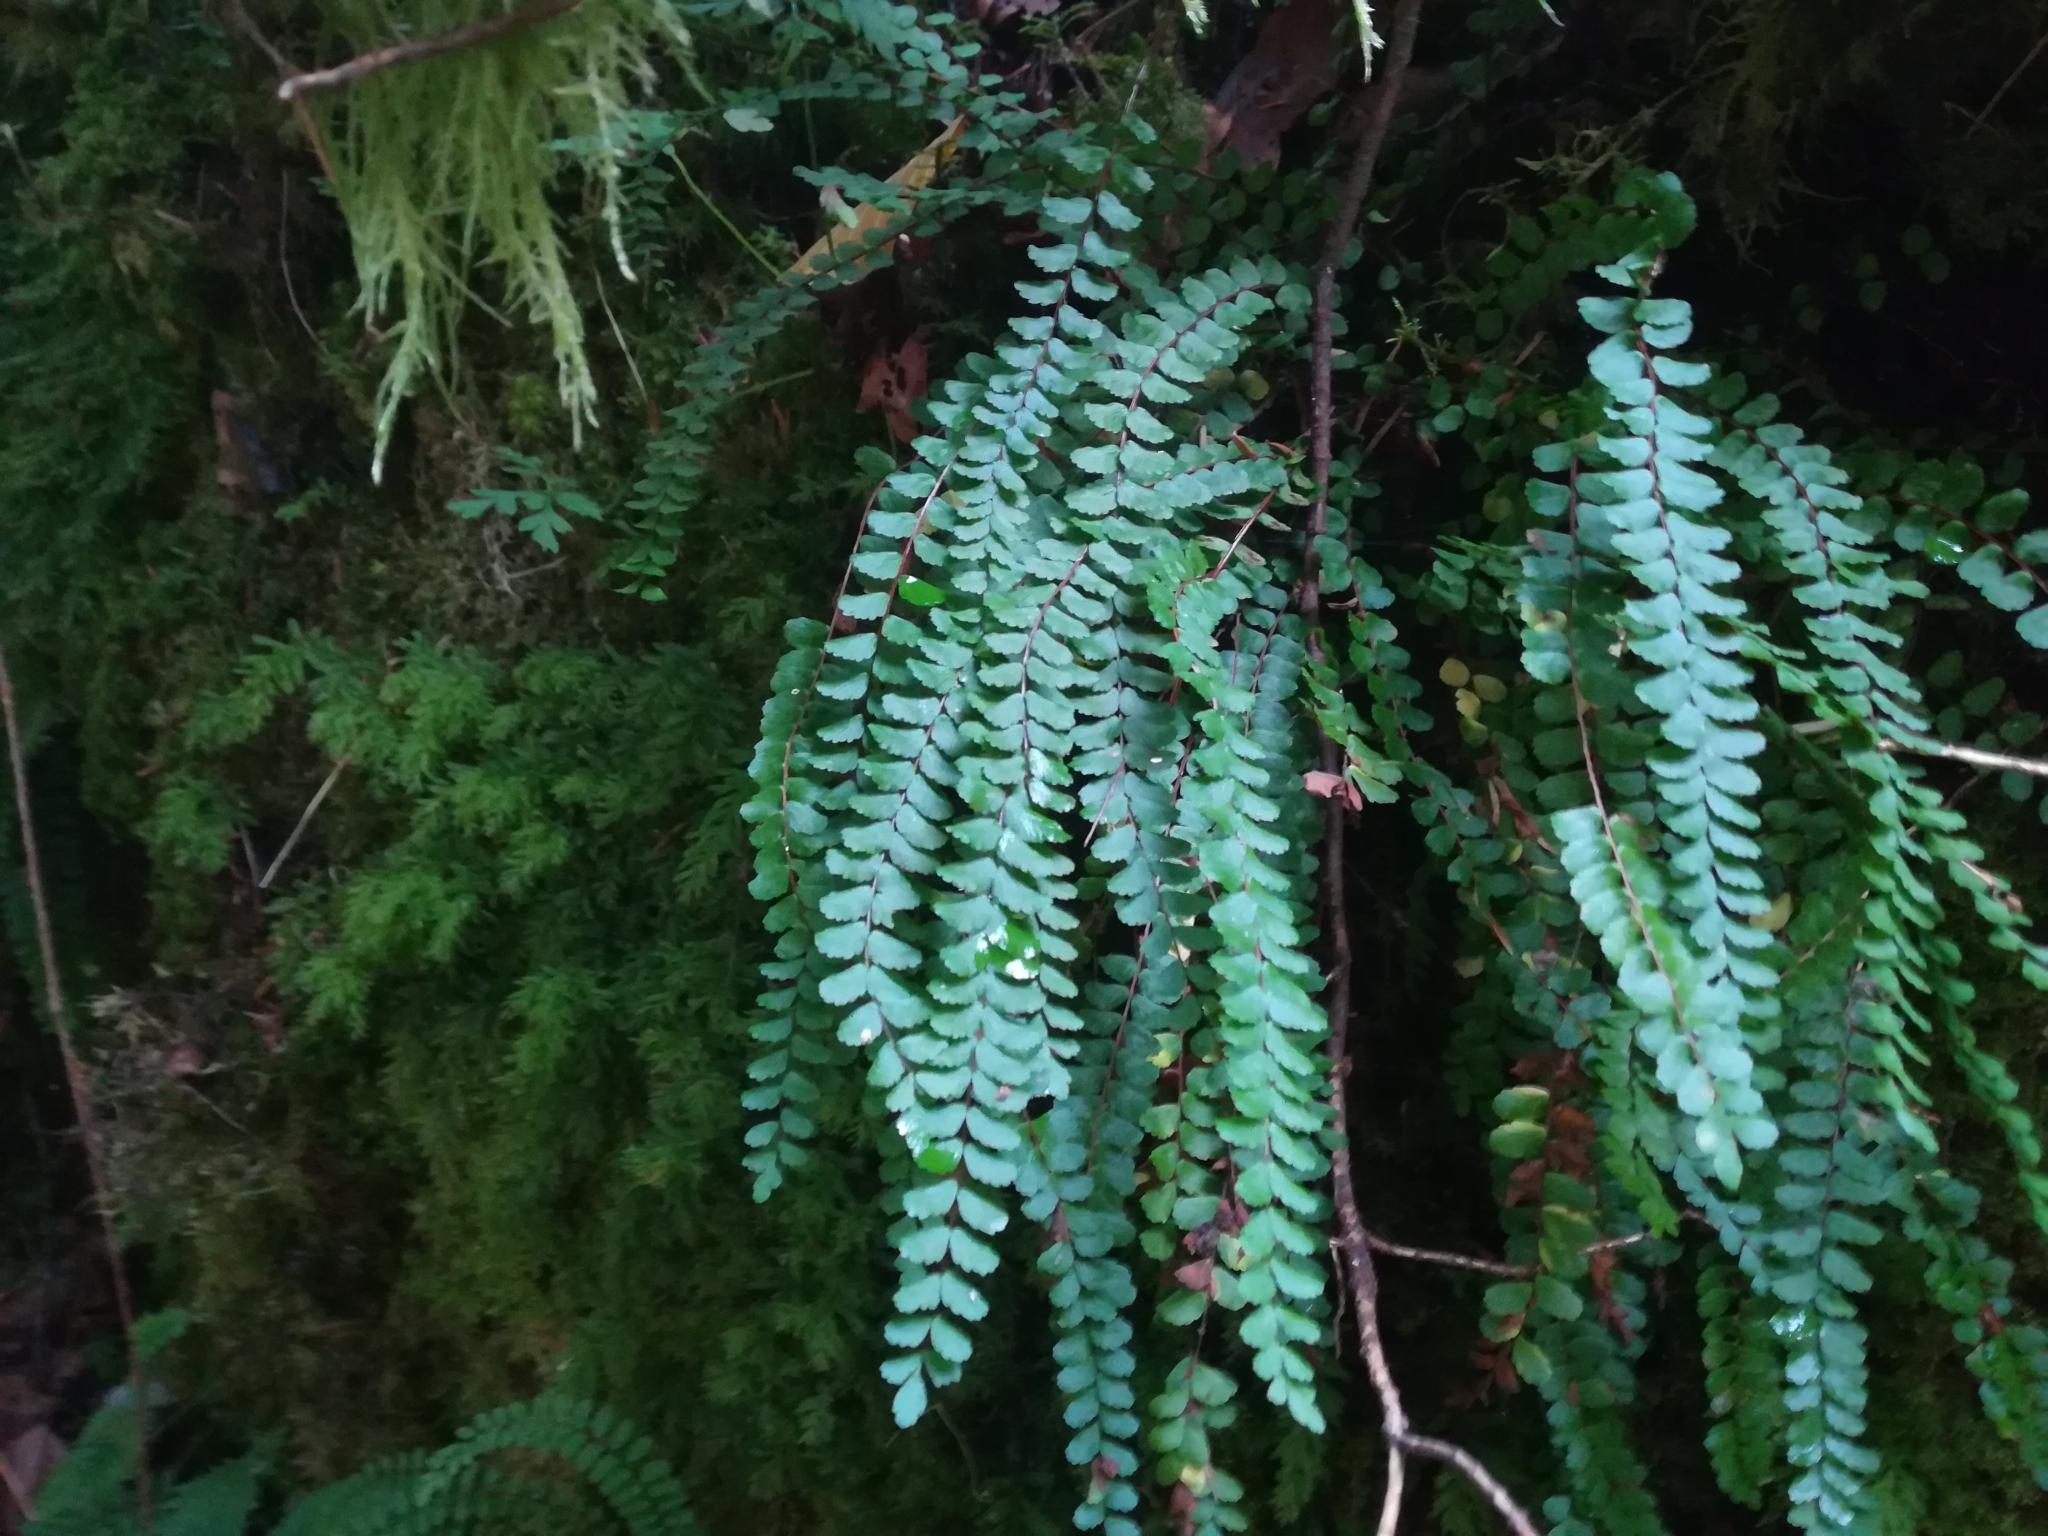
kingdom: Plantae
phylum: Tracheophyta
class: Polypodiopsida
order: Polypodiales
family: Aspleniaceae
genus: Asplenium
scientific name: Asplenium trichomanes
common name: Maidenhair spleenwort
